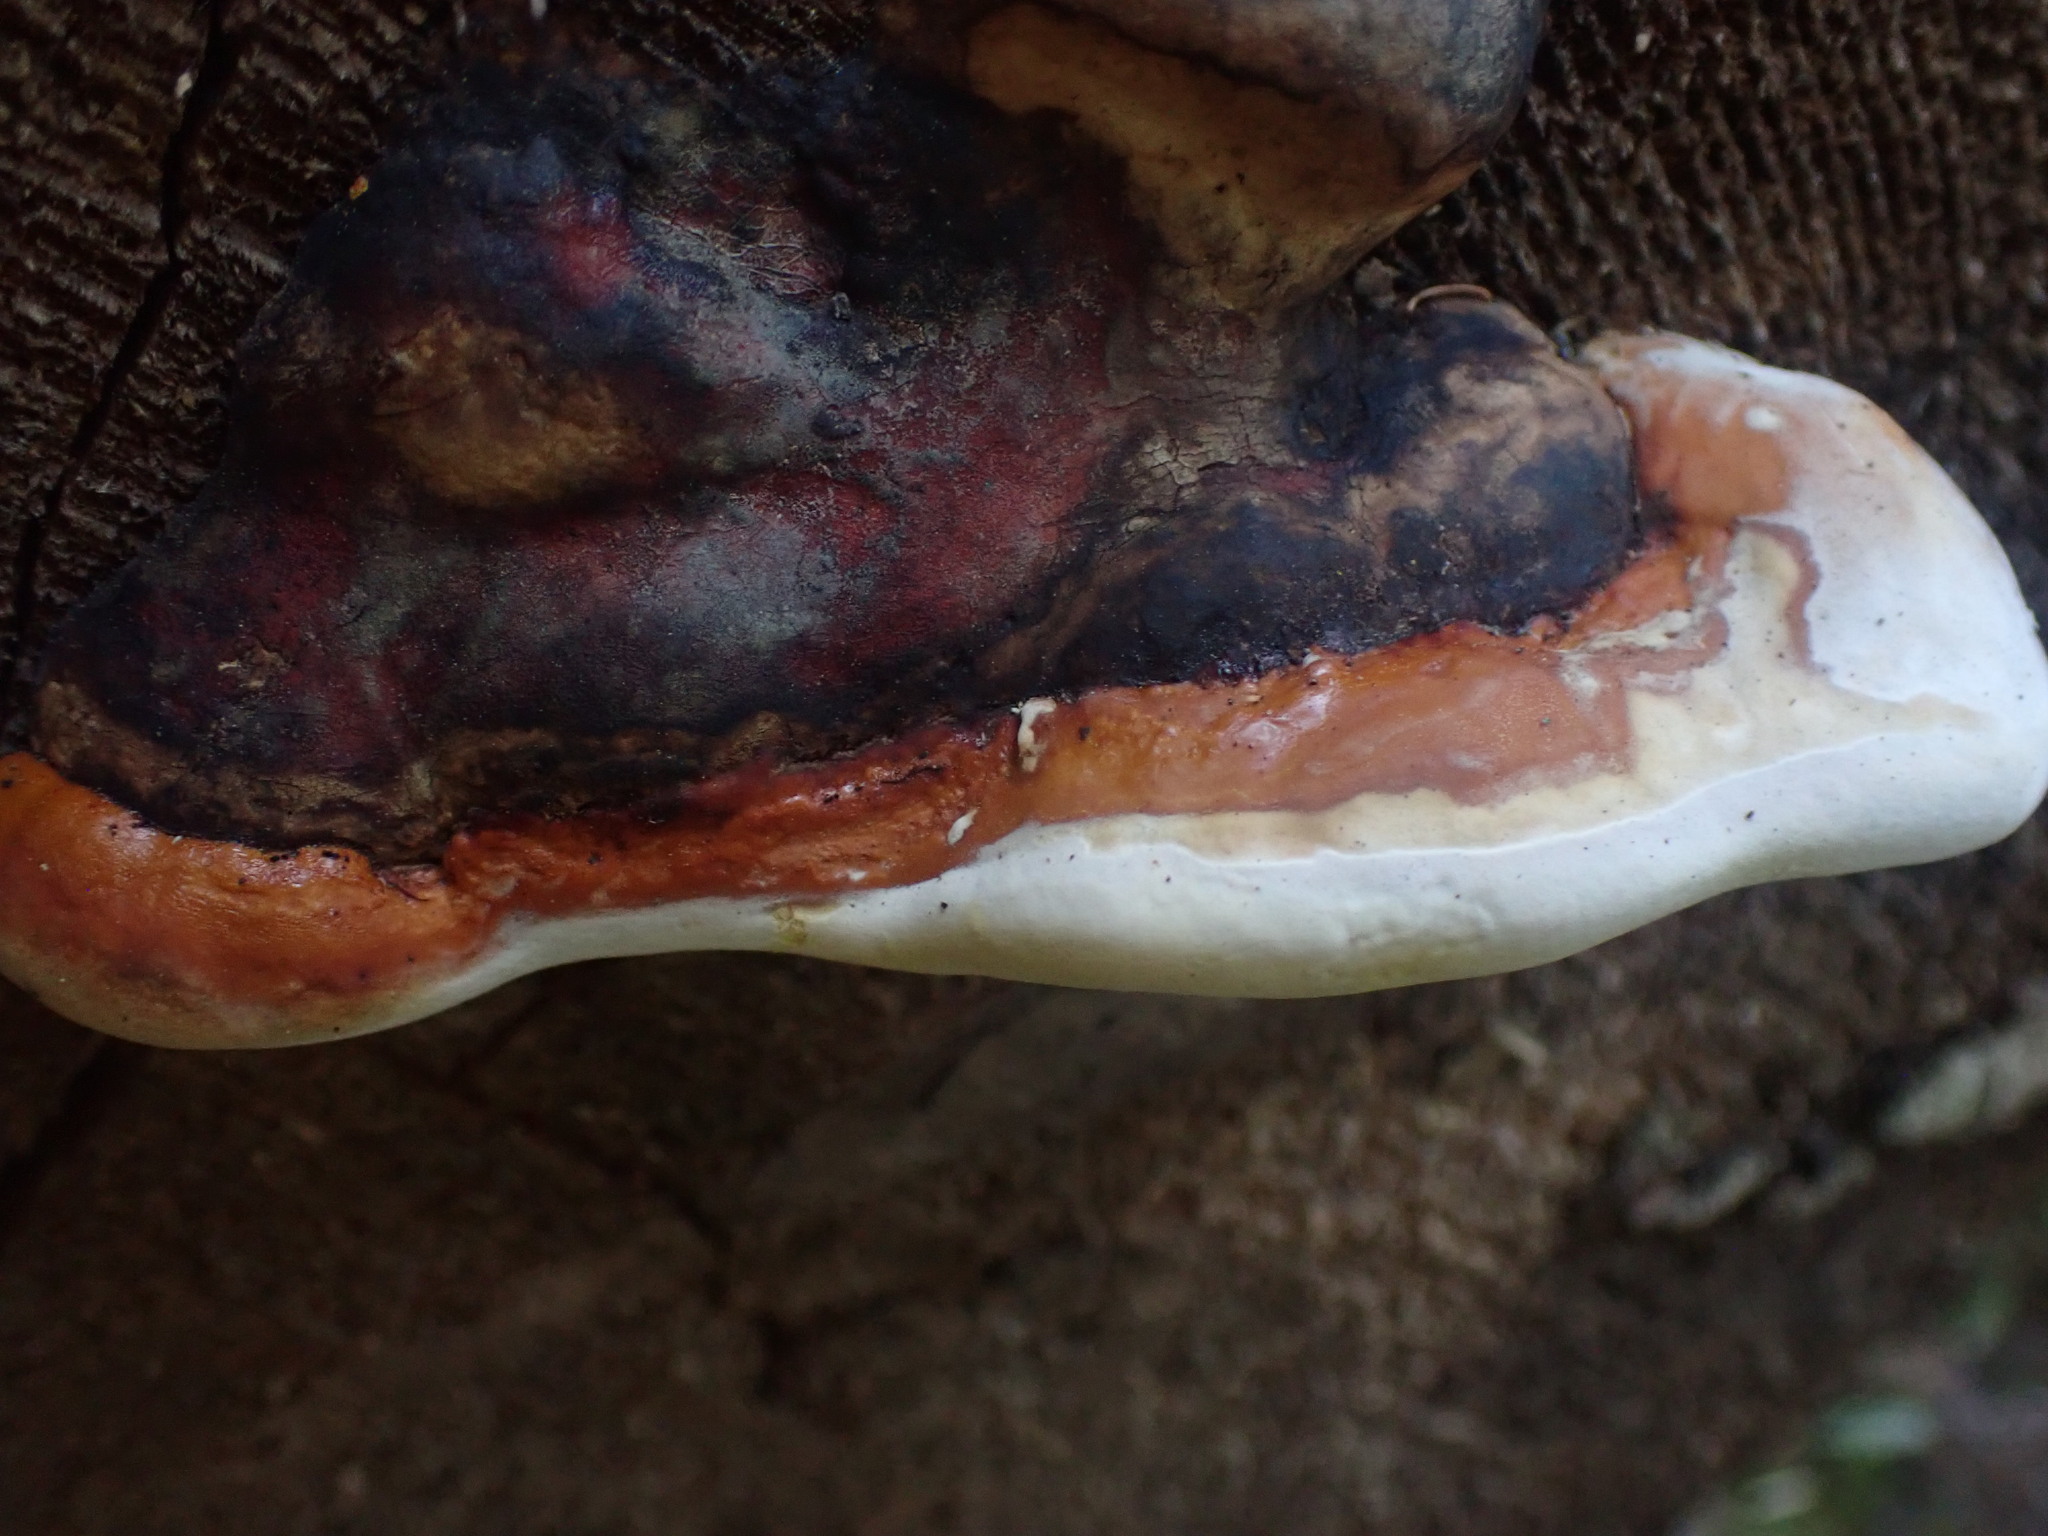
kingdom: Fungi
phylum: Basidiomycota
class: Agaricomycetes
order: Polyporales
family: Fomitopsidaceae
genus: Fomitopsis
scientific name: Fomitopsis mounceae
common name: Northern red belt
